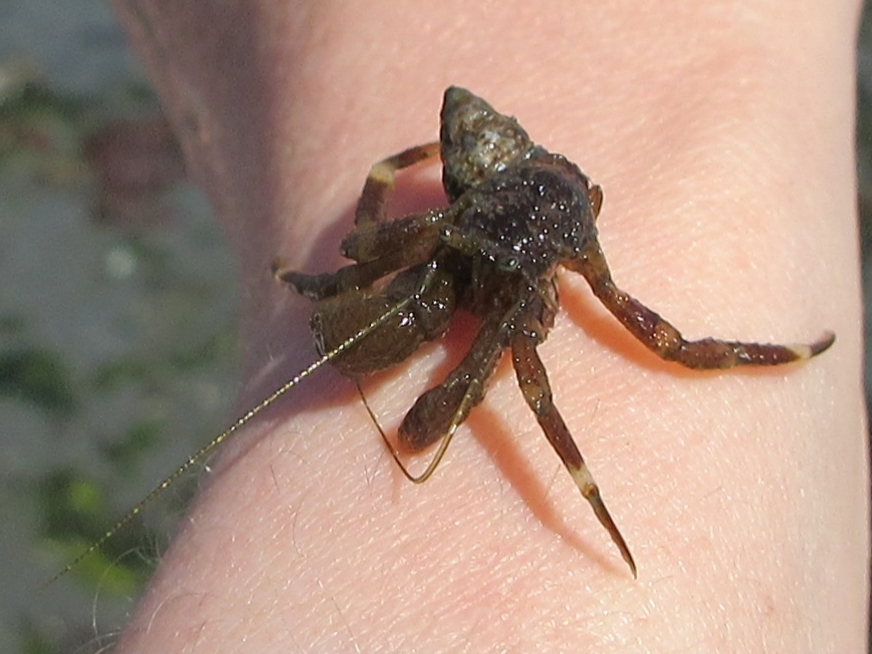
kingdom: Animalia
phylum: Arthropoda
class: Malacostraca
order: Decapoda
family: Paguridae
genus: Pagurus
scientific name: Pagurus hirsutiusculus
